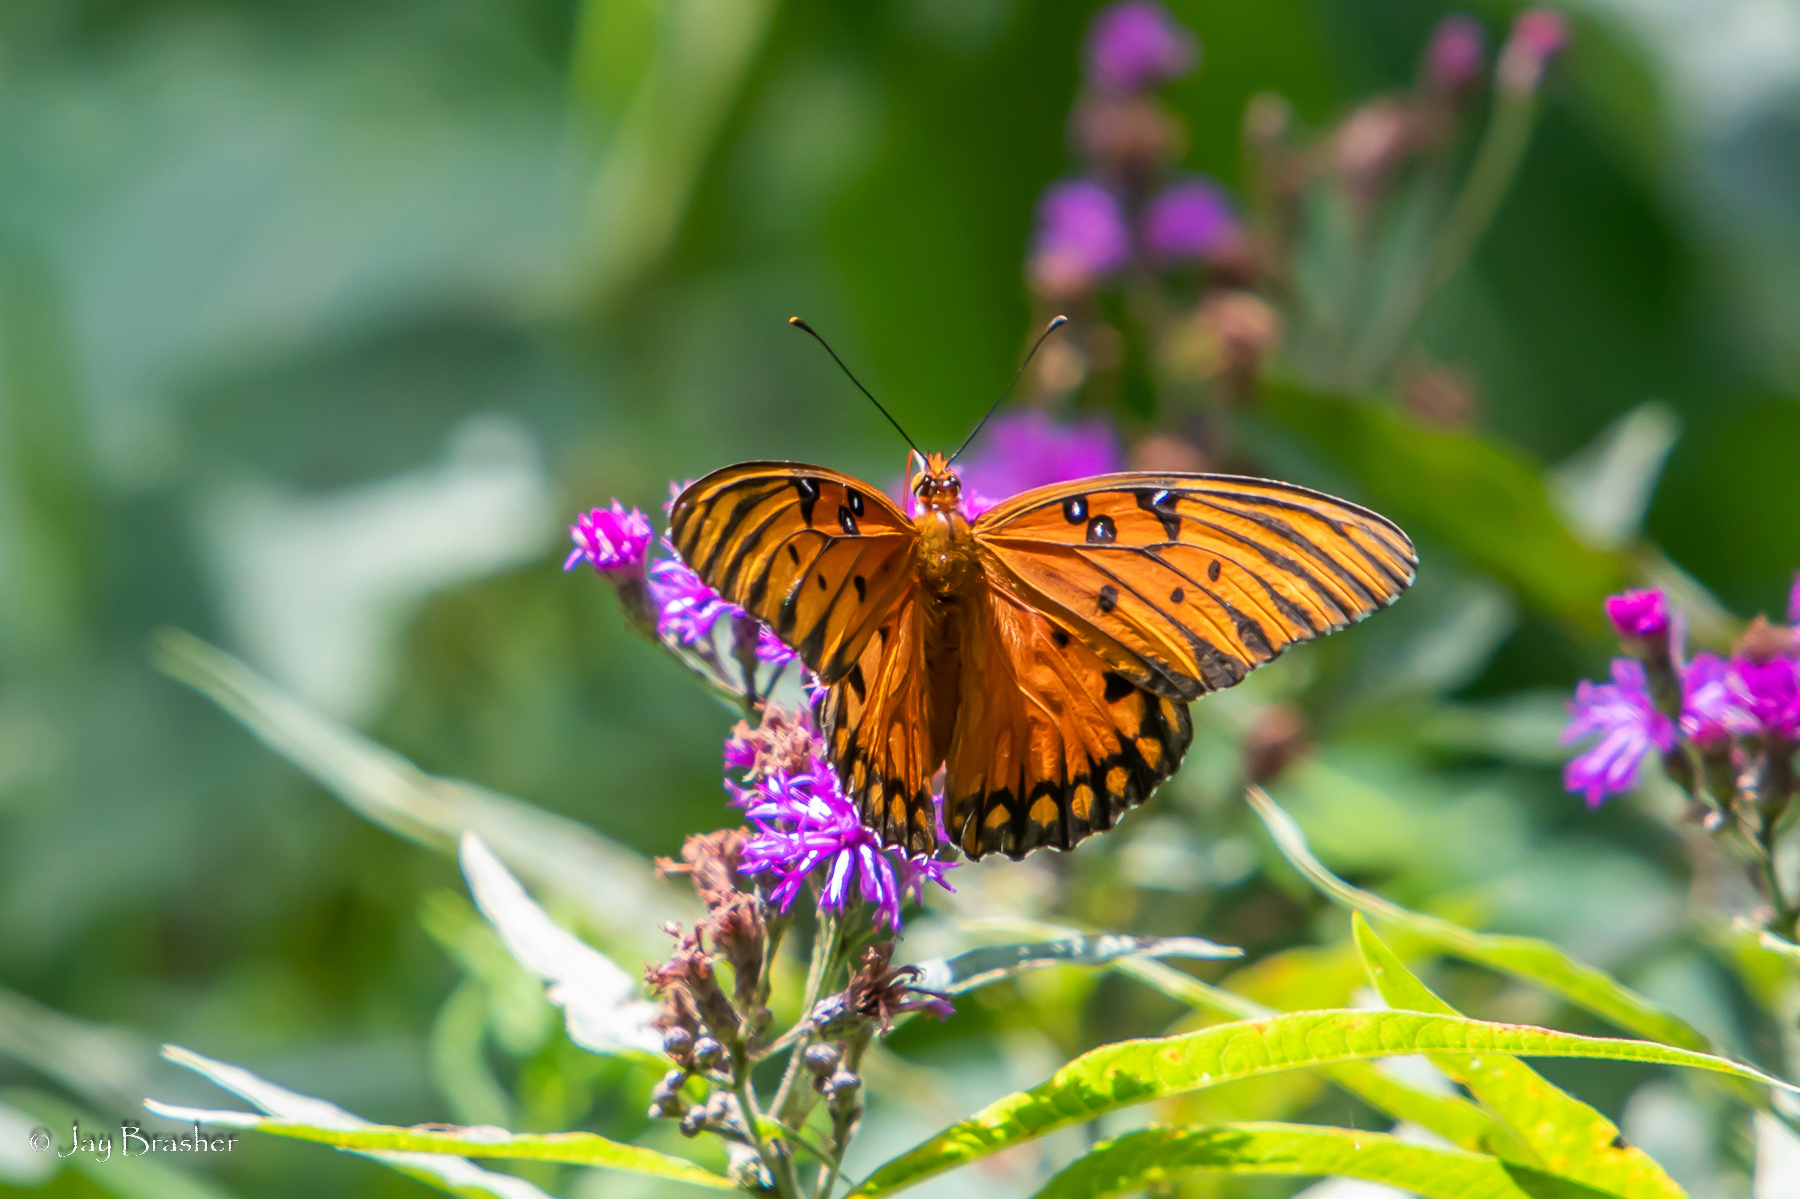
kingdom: Animalia
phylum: Arthropoda
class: Insecta
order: Lepidoptera
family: Nymphalidae
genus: Dione
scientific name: Dione vanillae
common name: Gulf fritillary
